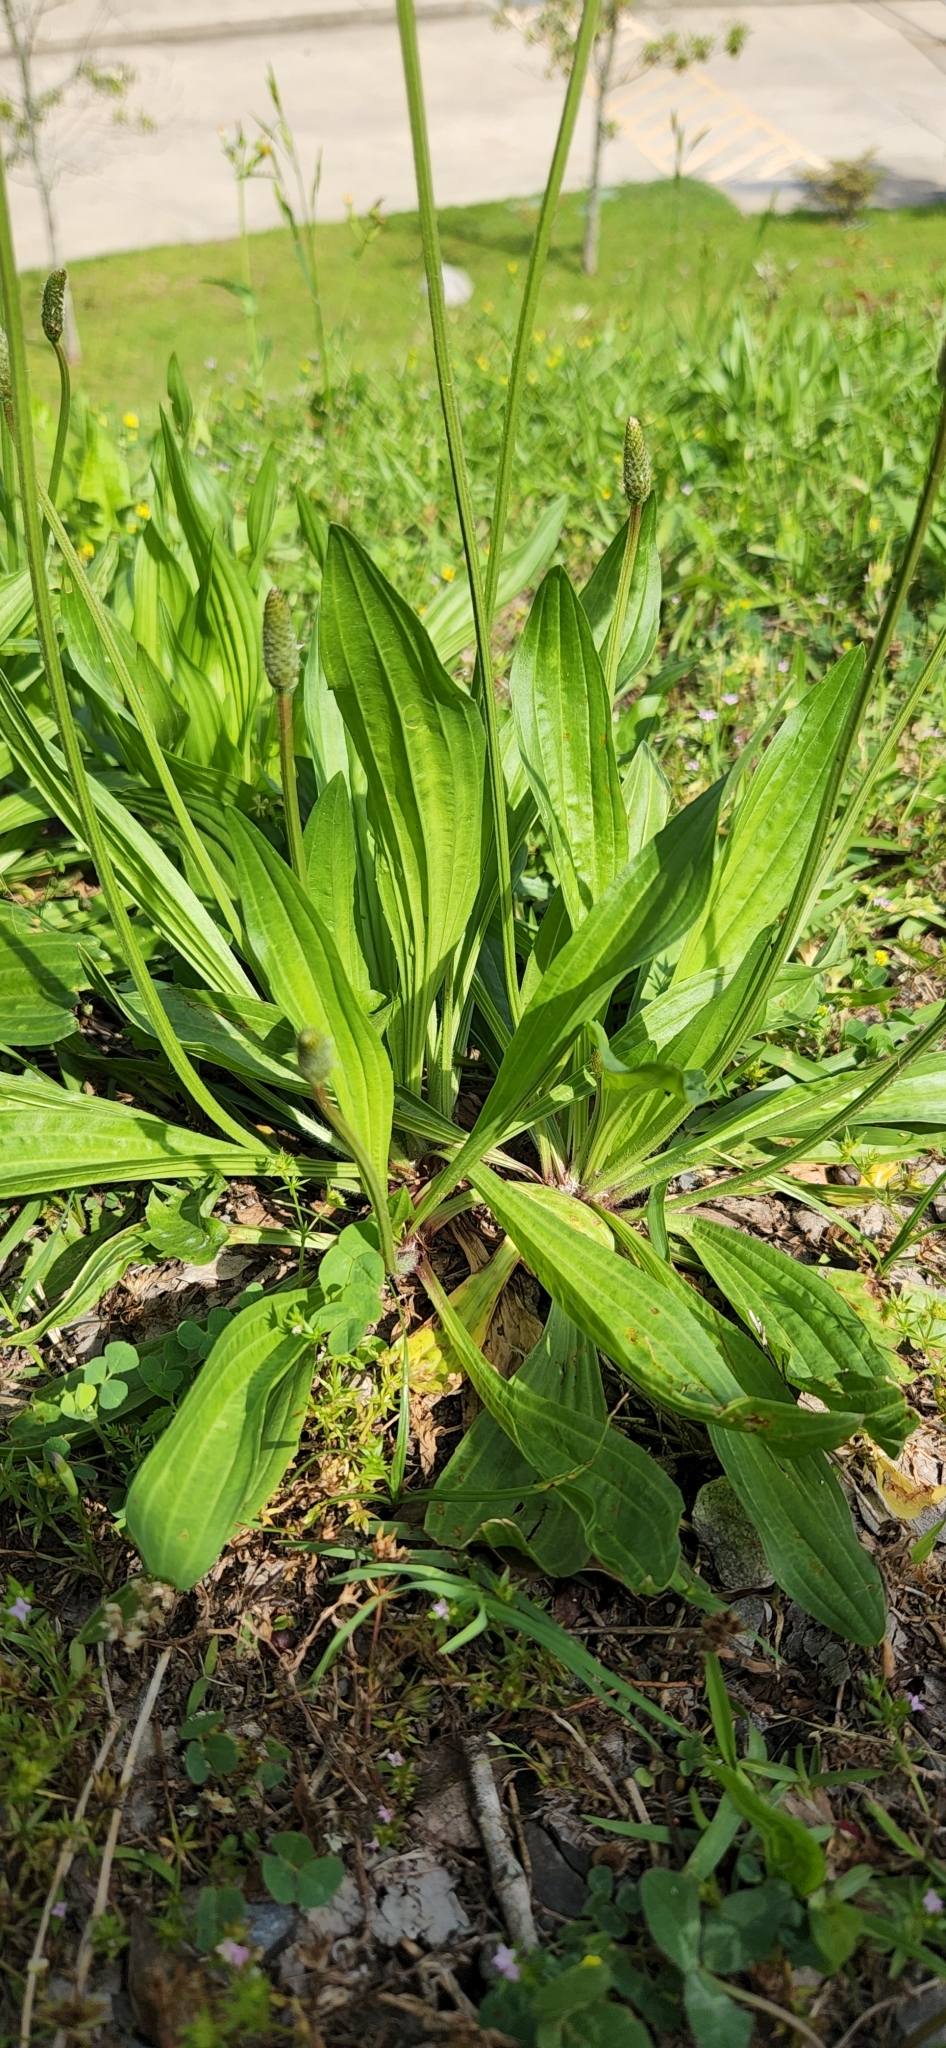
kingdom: Plantae
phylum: Tracheophyta
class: Magnoliopsida
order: Lamiales
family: Plantaginaceae
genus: Plantago
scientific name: Plantago lanceolata
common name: Ribwort plantain
